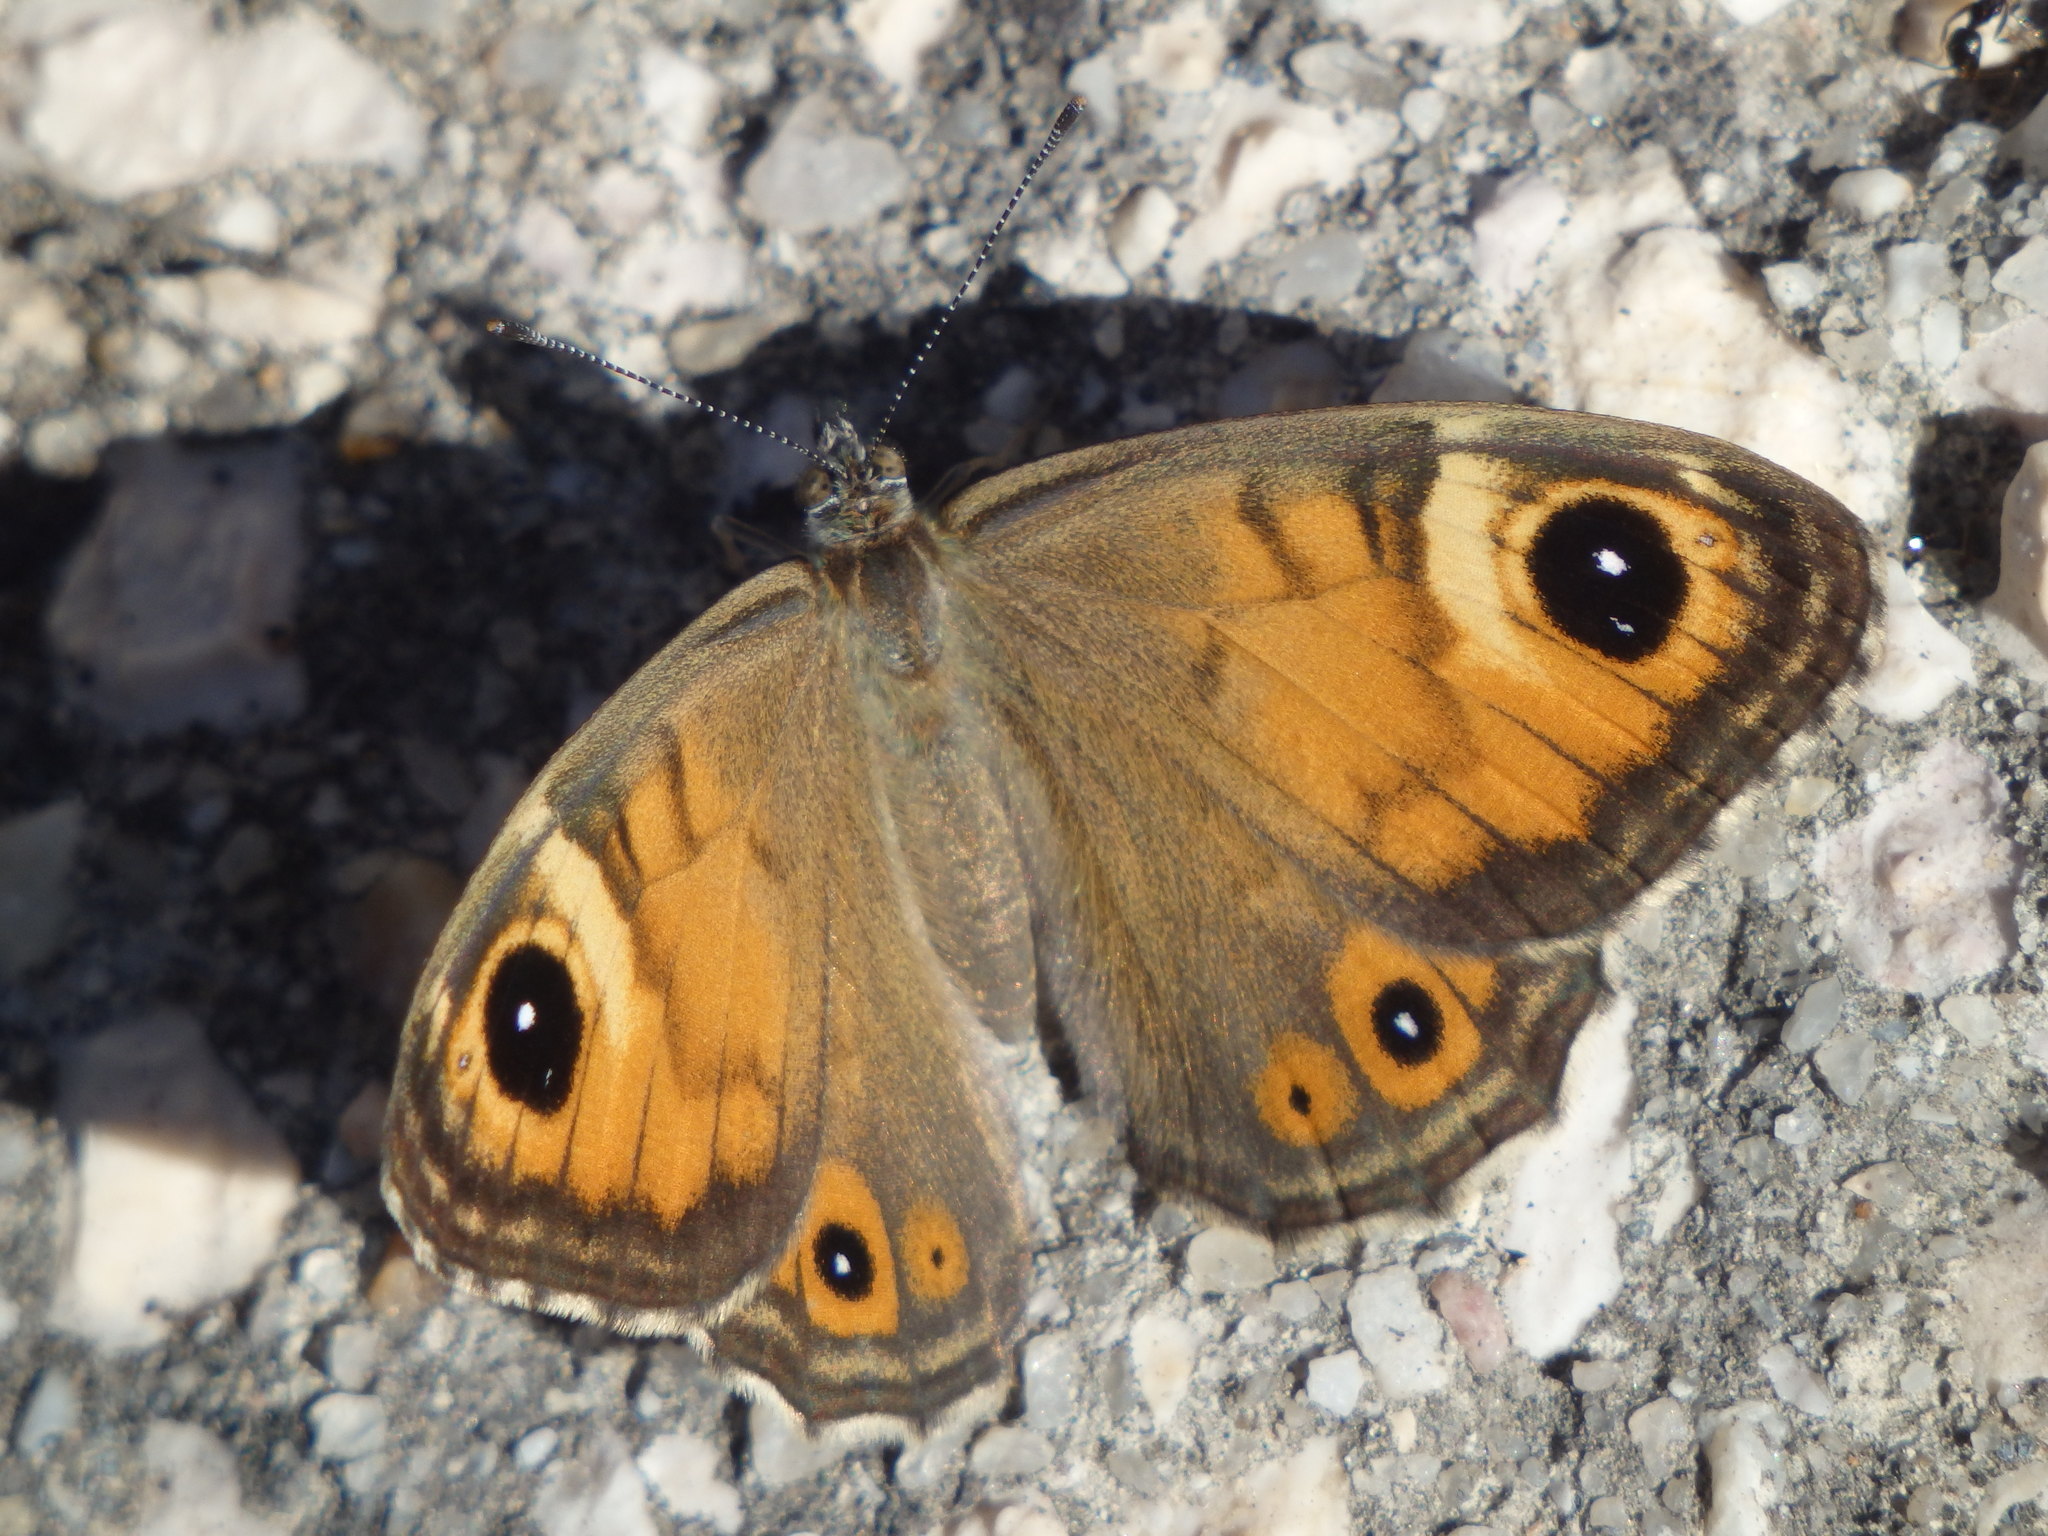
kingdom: Animalia
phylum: Arthropoda
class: Insecta
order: Lepidoptera
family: Nymphalidae
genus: Pararge
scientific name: Pararge Lasiommata maera
